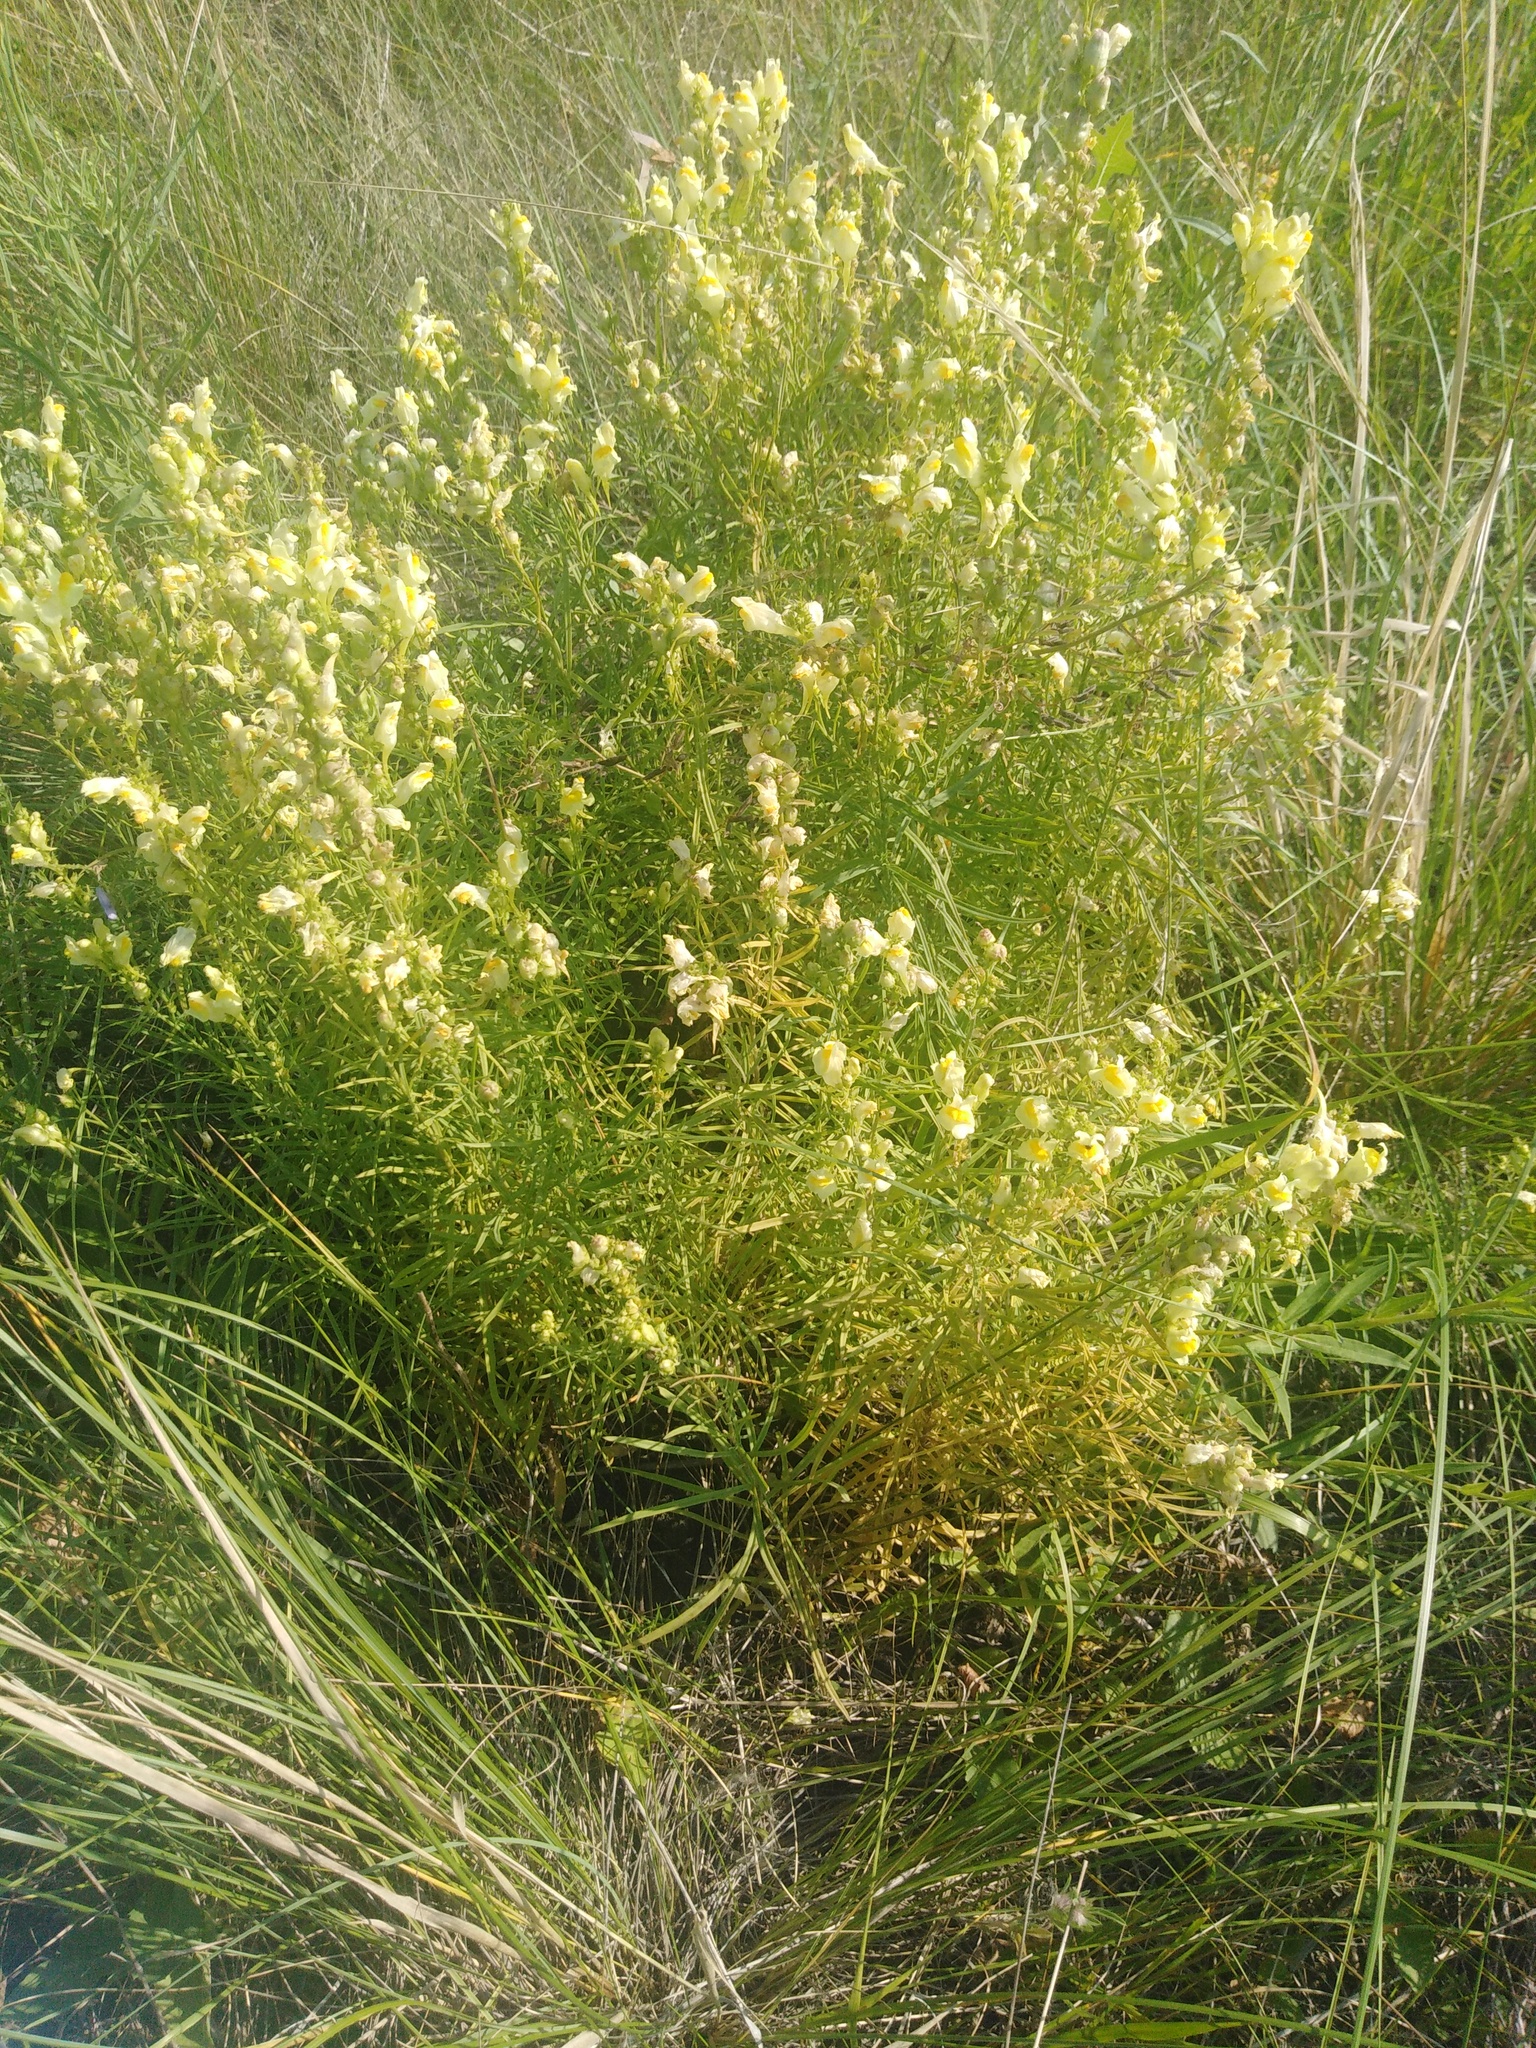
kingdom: Plantae
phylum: Tracheophyta
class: Magnoliopsida
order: Lamiales
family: Plantaginaceae
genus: Linaria
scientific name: Linaria vulgaris
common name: Butter and eggs
